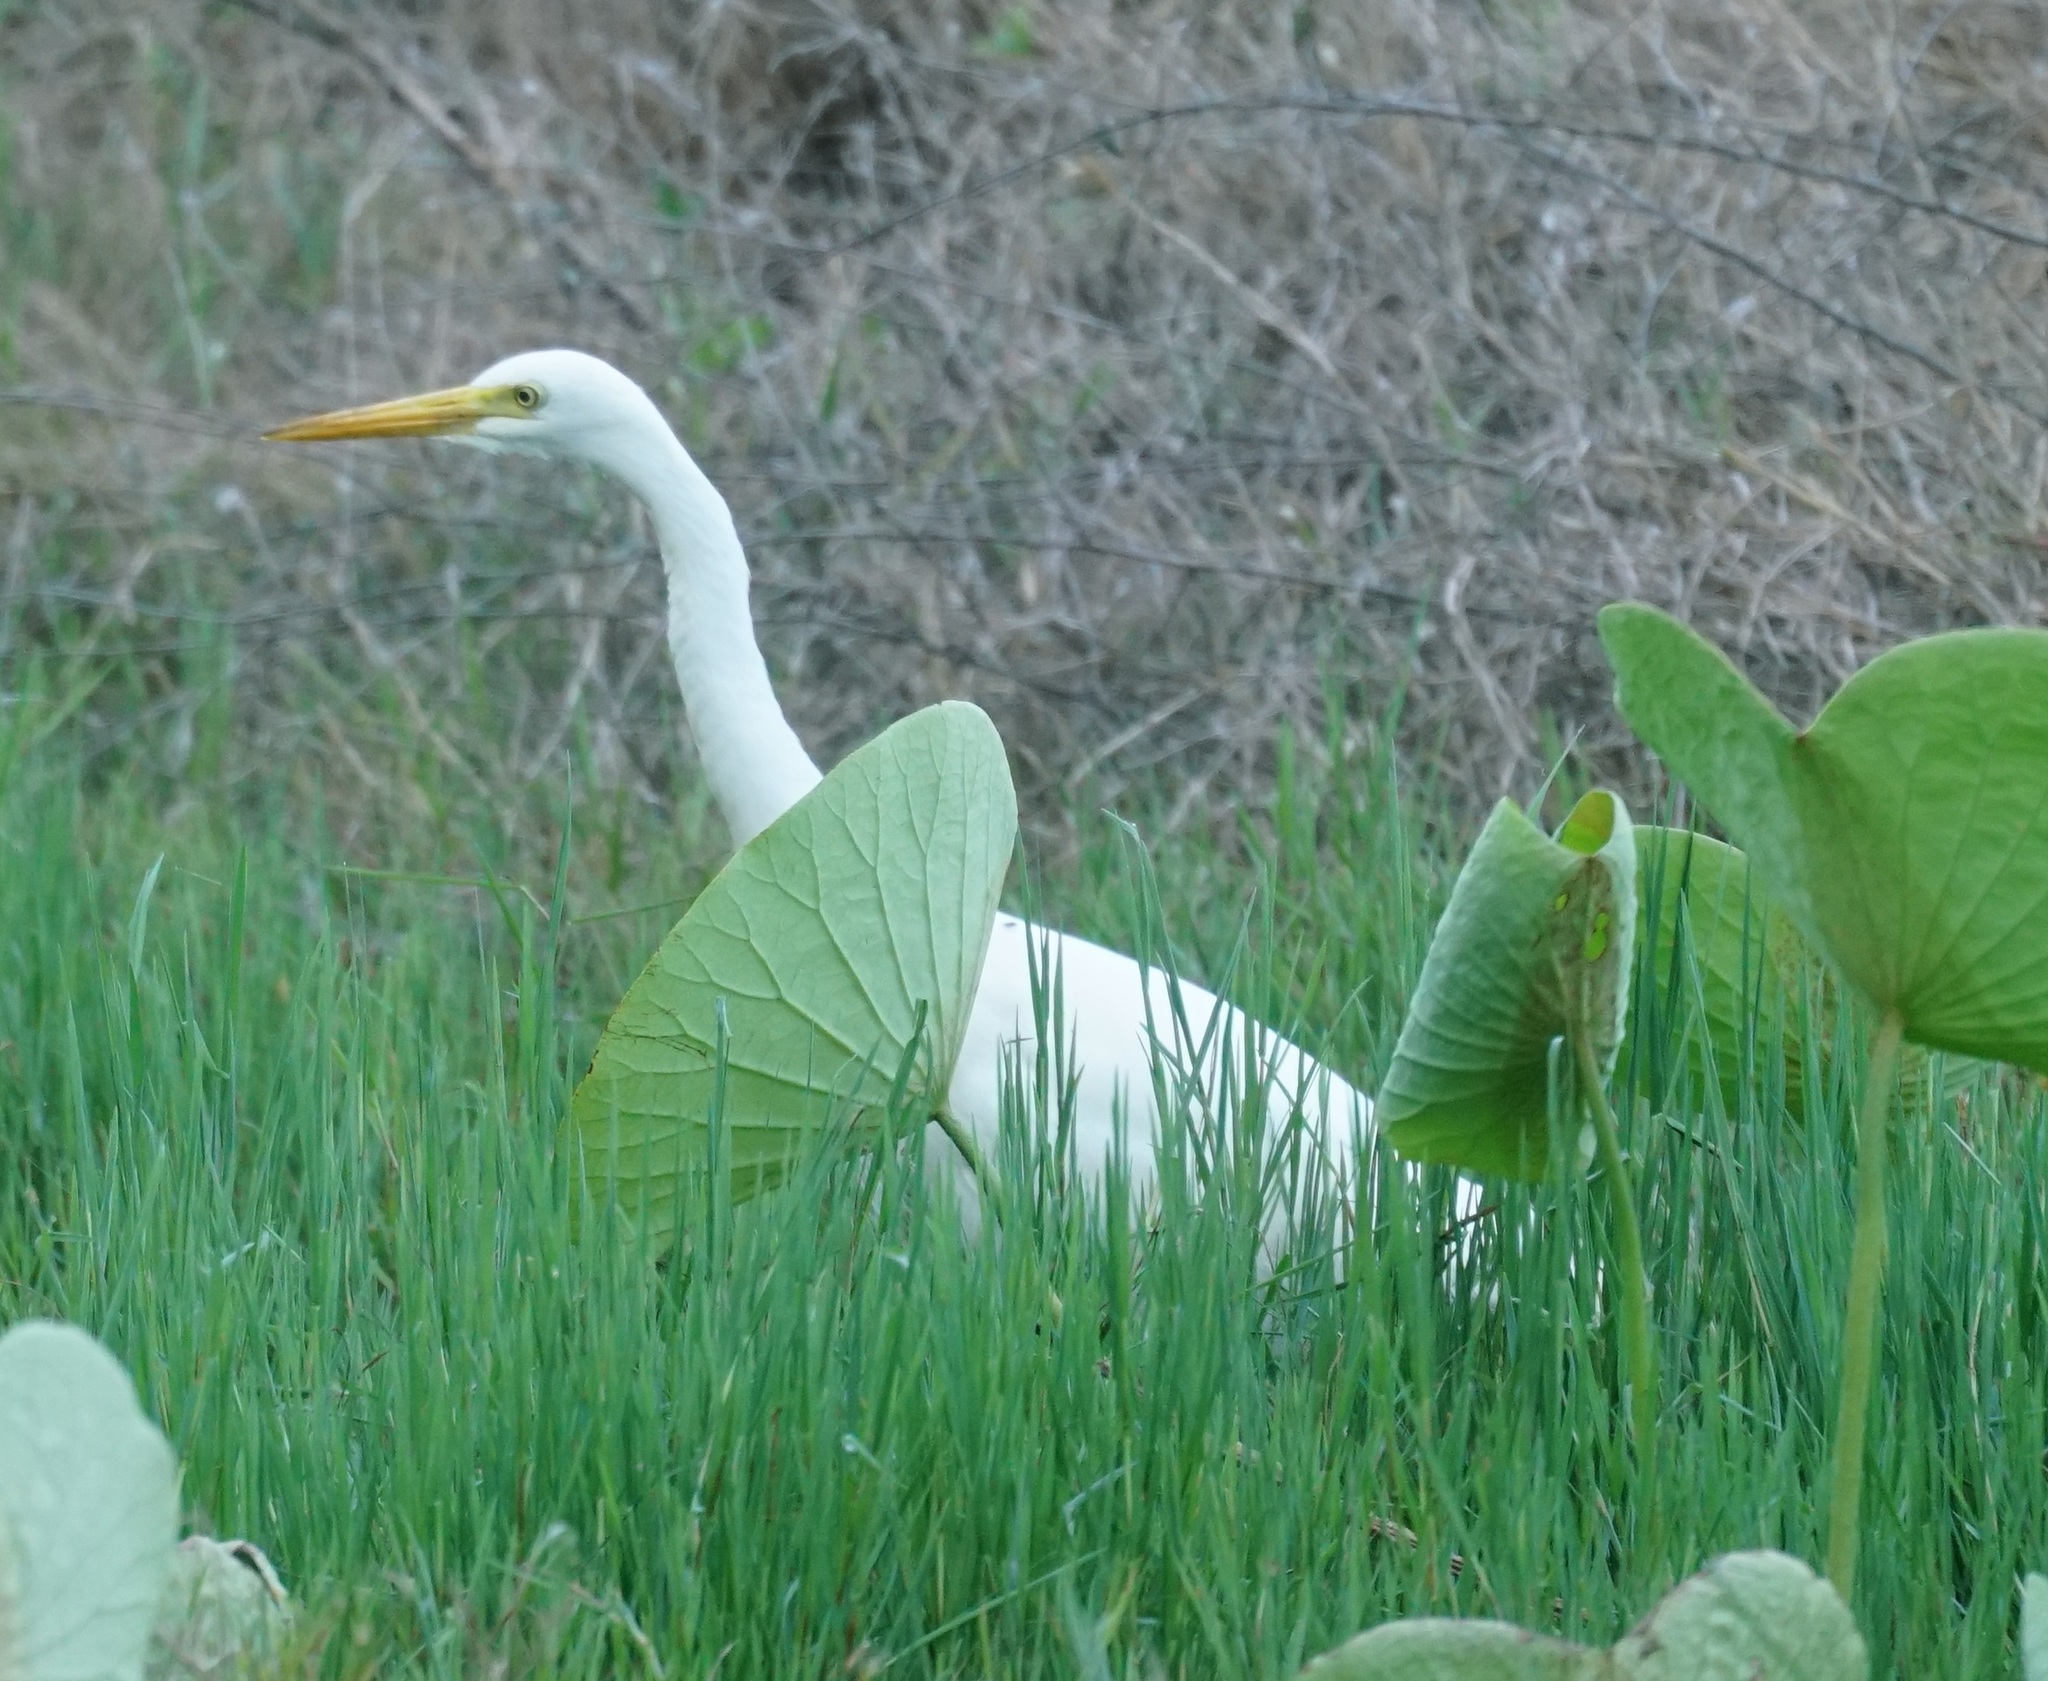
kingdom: Animalia
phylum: Chordata
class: Aves
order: Pelecaniformes
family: Ardeidae
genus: Egretta
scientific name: Egretta intermedia
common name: Intermediate egret
